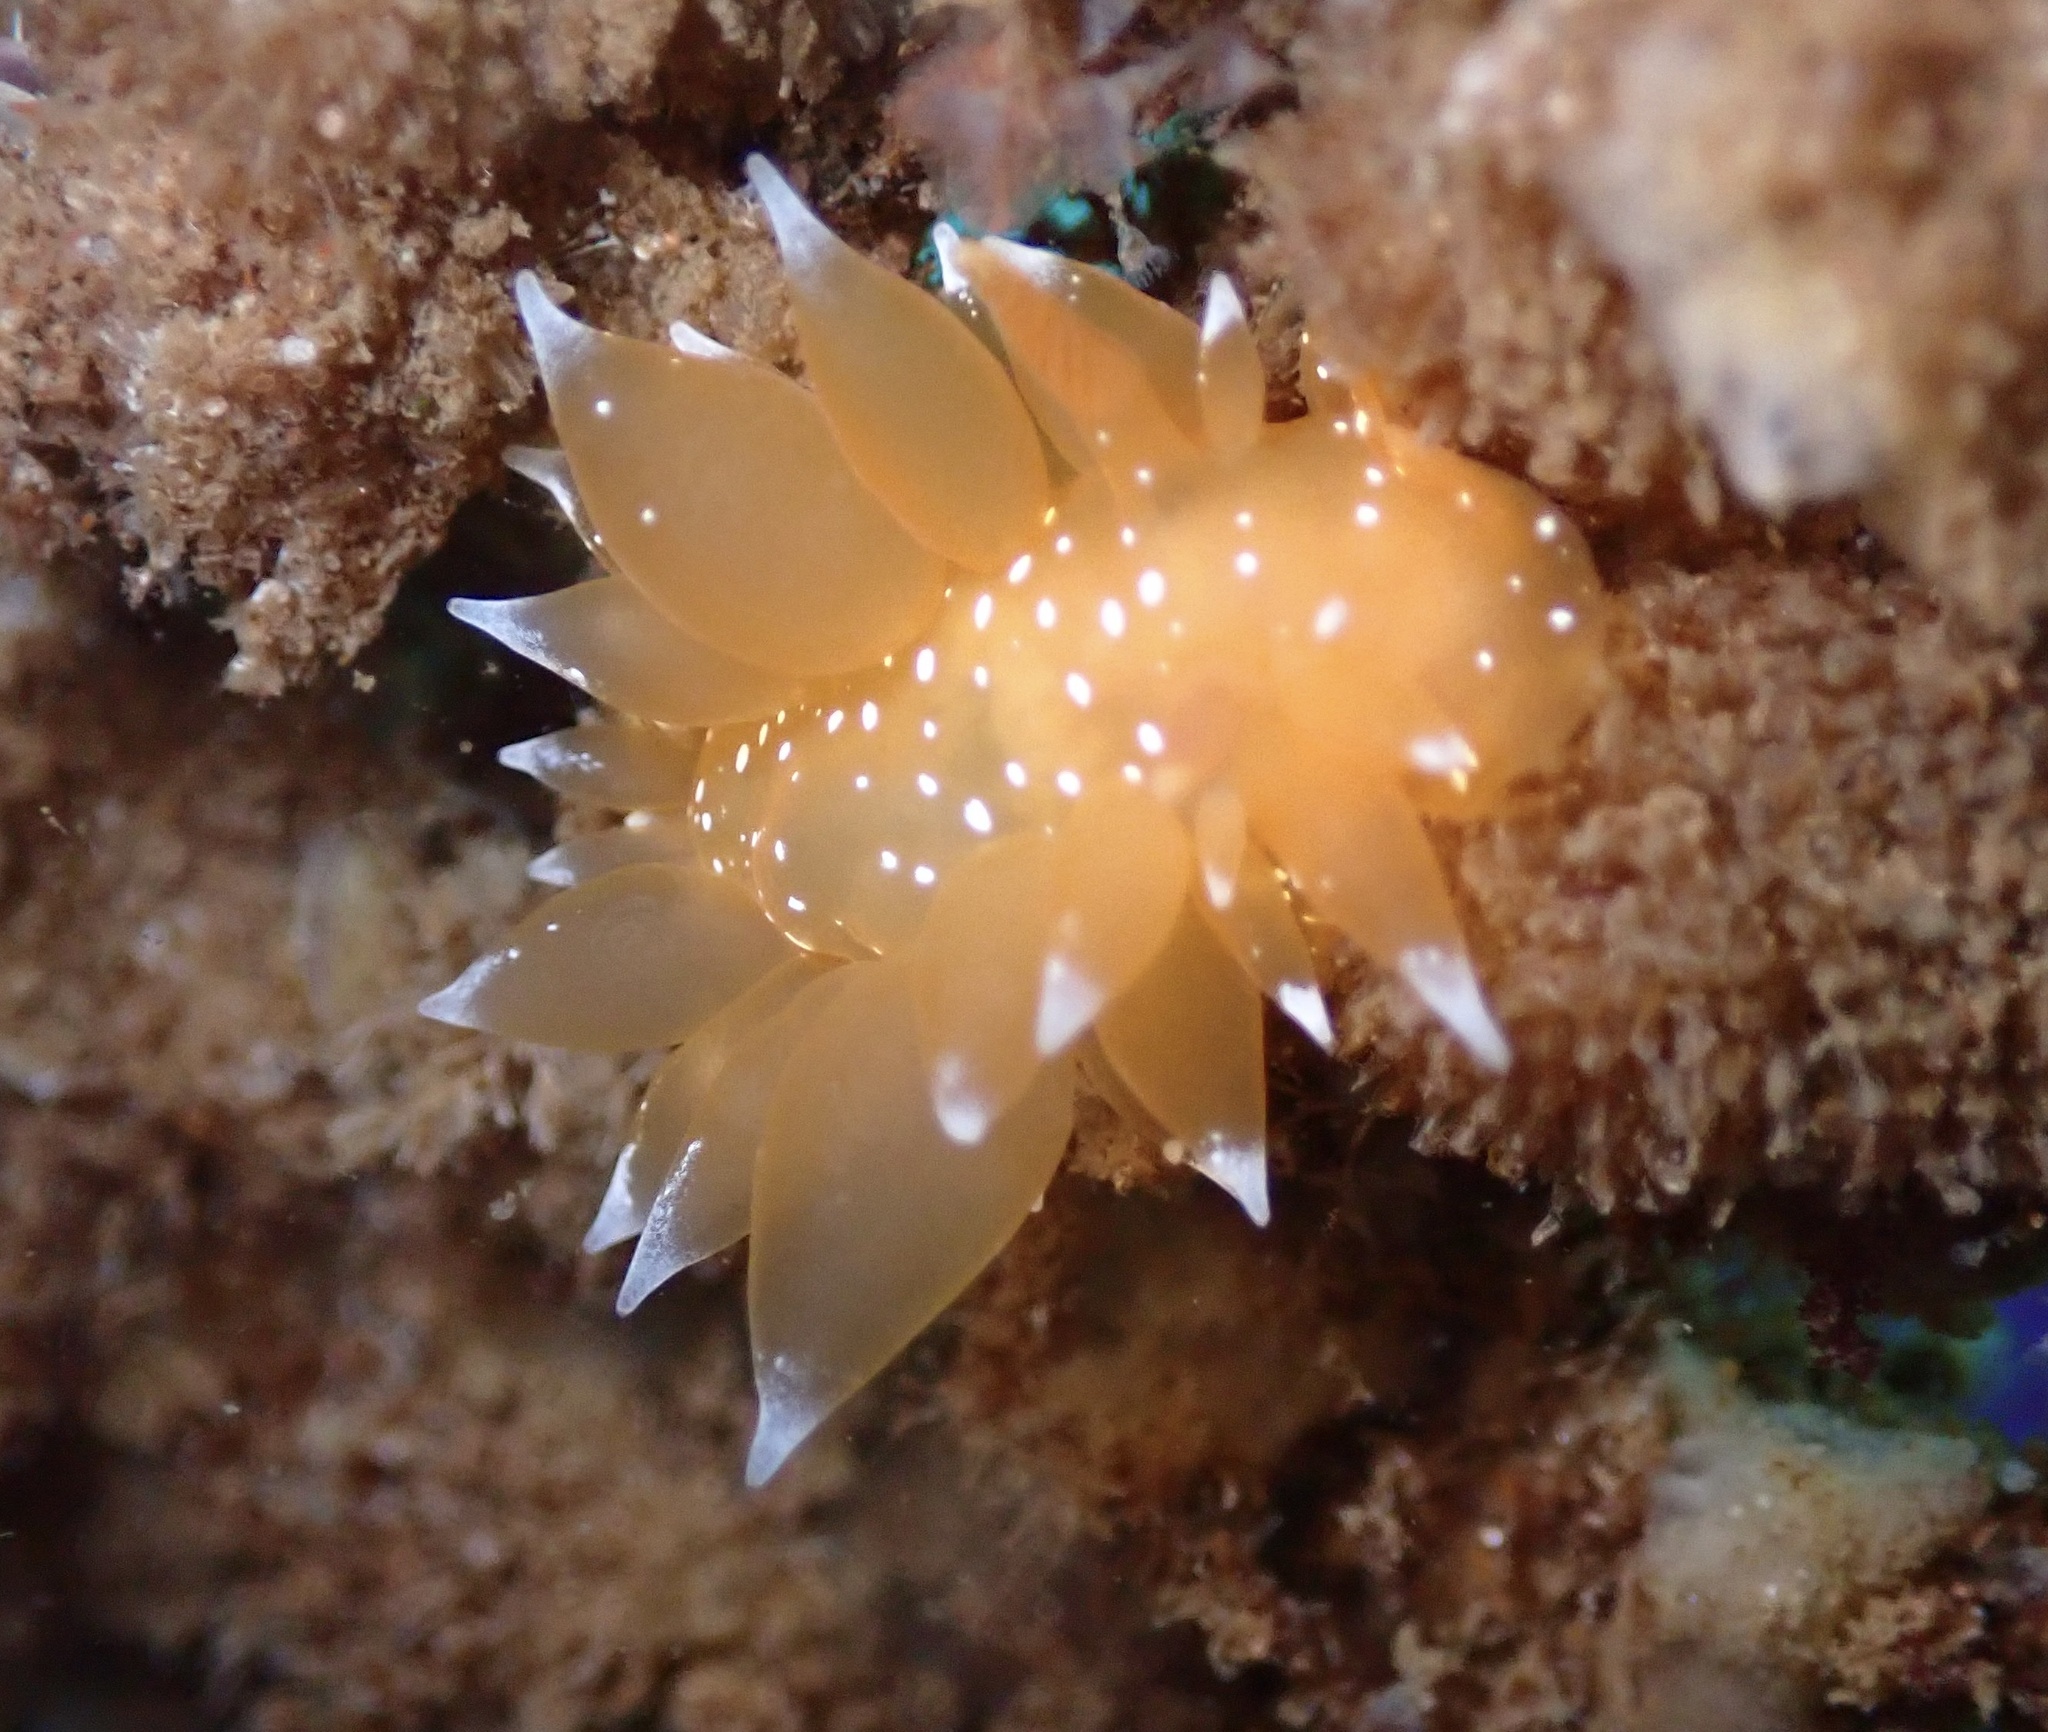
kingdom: Animalia
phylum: Mollusca
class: Gastropoda
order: Nudibranchia
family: Dironidae
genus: Dirona
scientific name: Dirona pellucida
